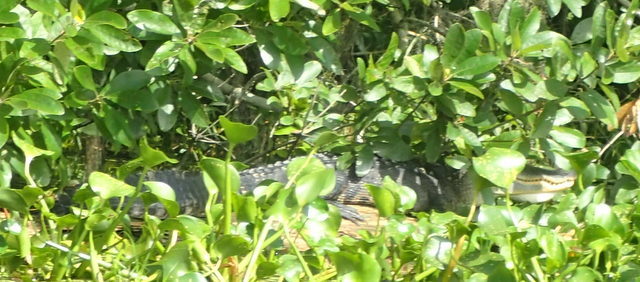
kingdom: Animalia
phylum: Chordata
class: Crocodylia
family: Alligatoridae
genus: Alligator
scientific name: Alligator mississippiensis
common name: American alligator
